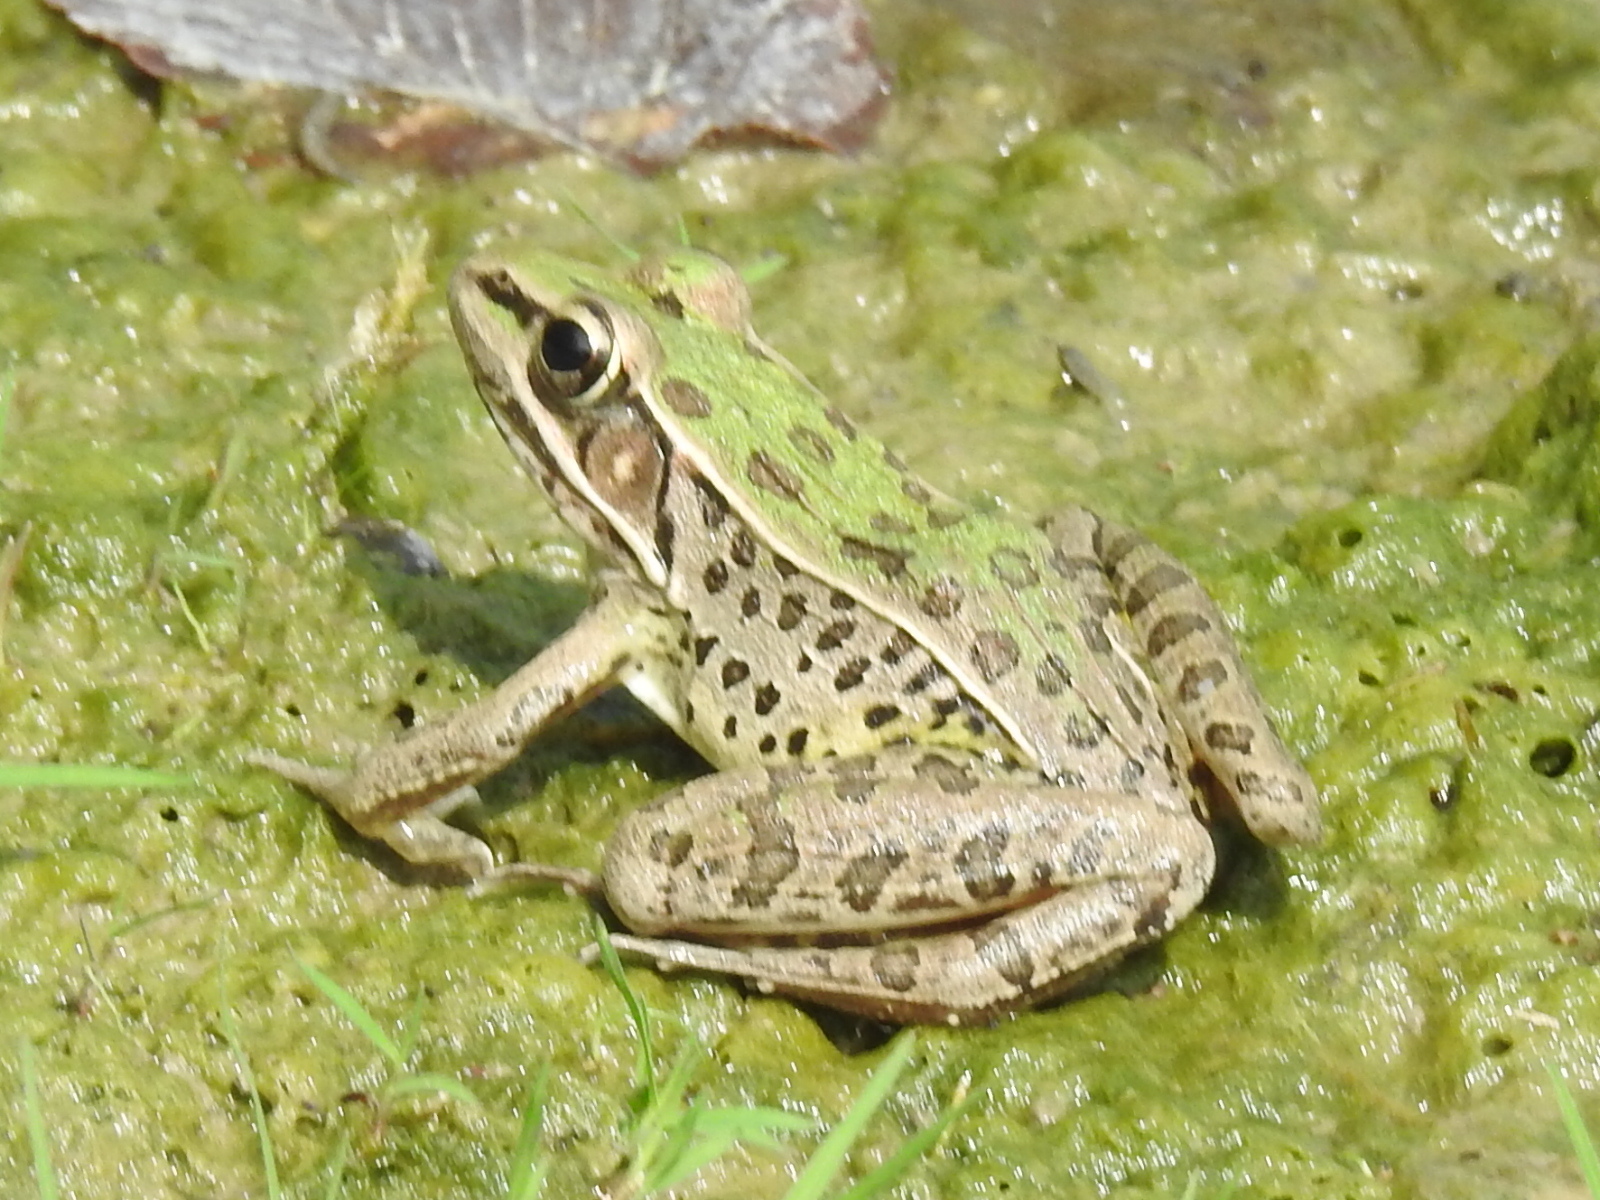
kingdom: Animalia
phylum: Chordata
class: Amphibia
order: Anura
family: Ranidae
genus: Lithobates
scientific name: Lithobates sphenocephalus
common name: Southern leopard frog
